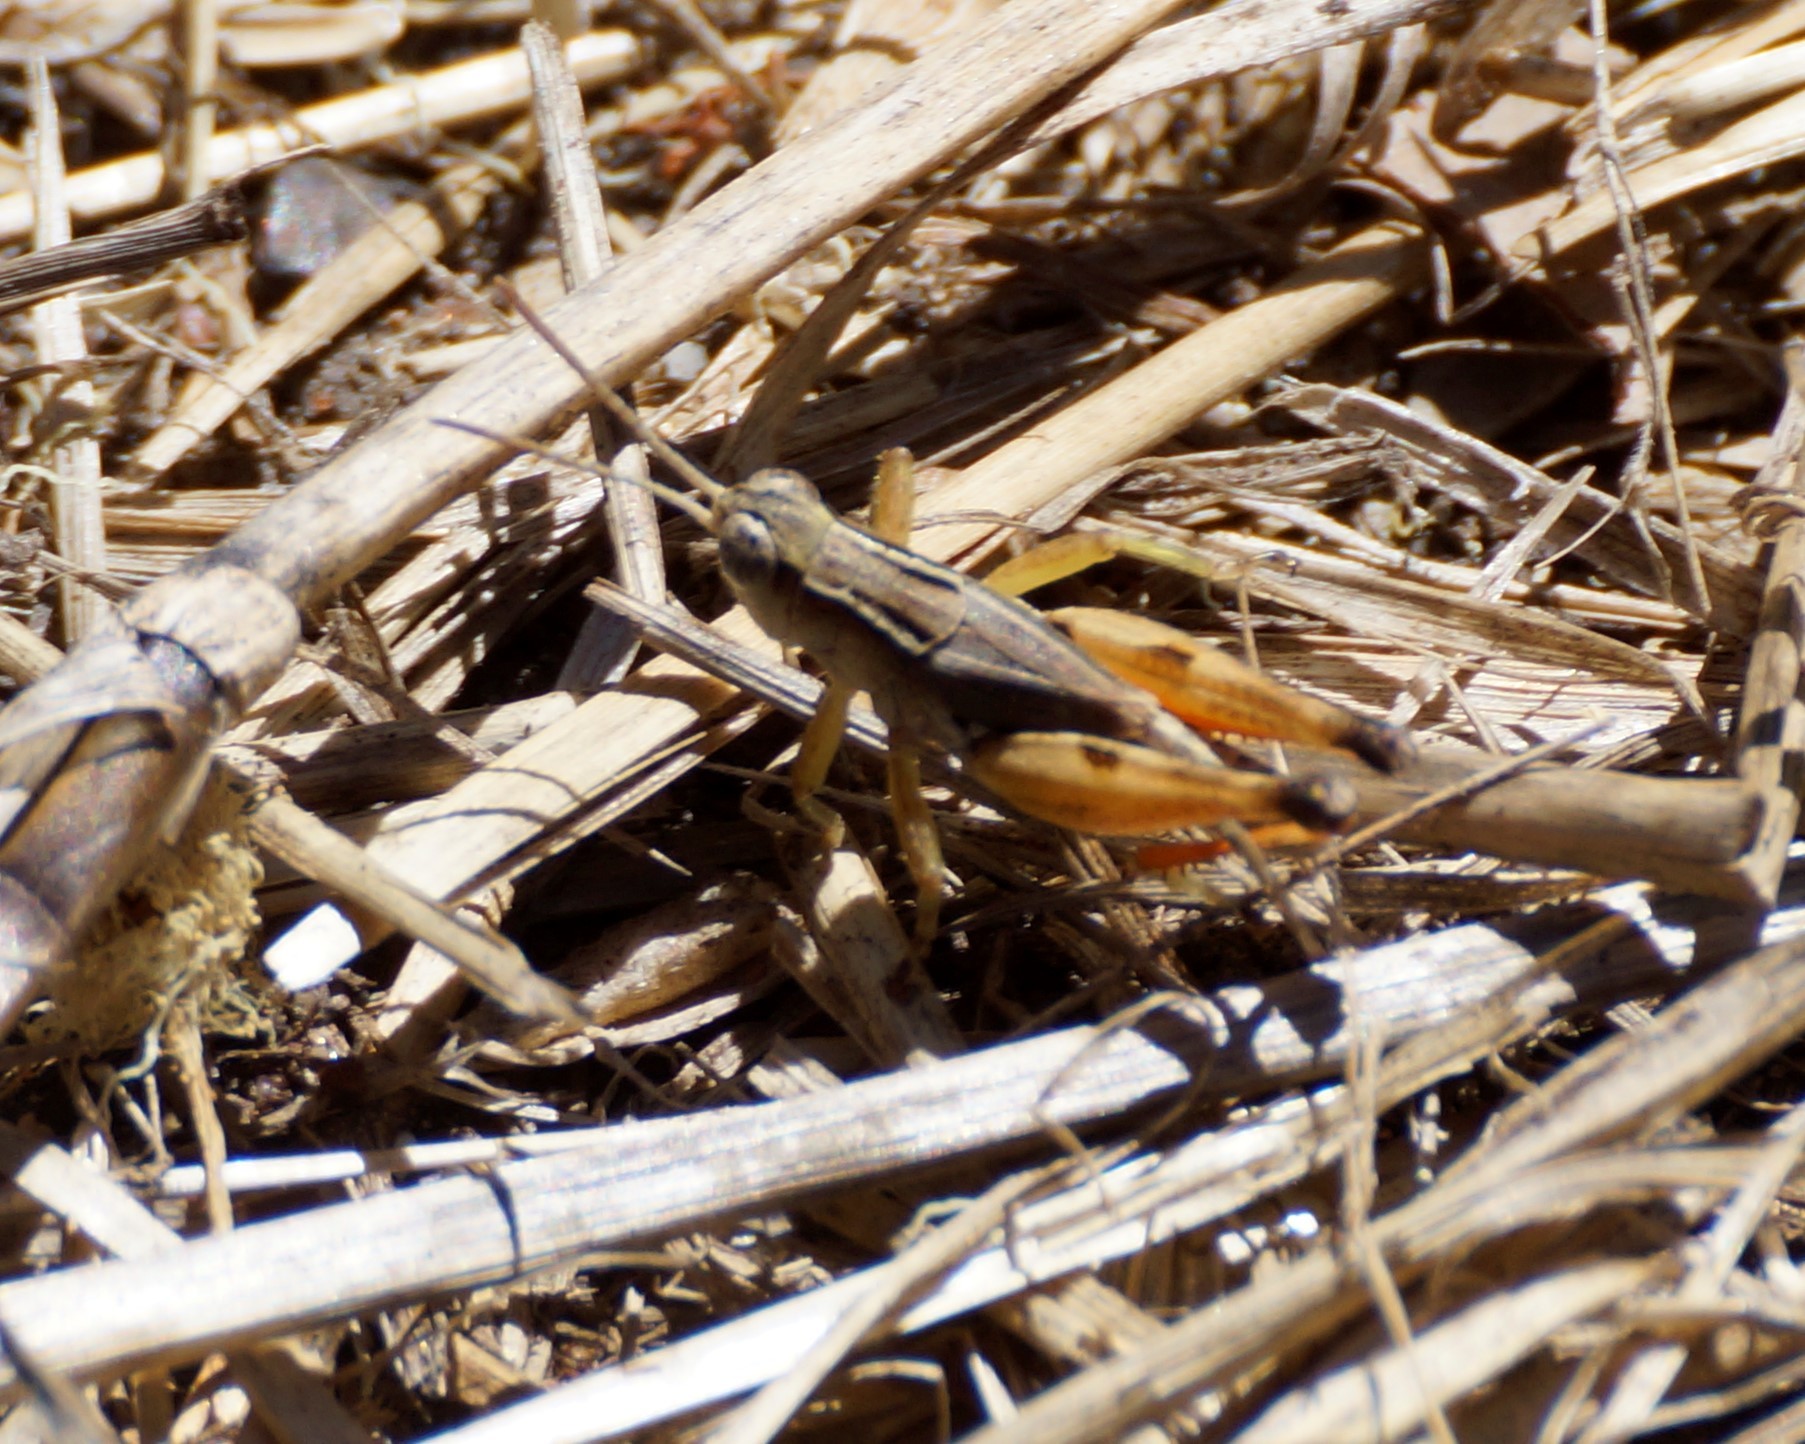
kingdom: Animalia
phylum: Arthropoda
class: Insecta
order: Orthoptera
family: Acrididae
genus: Phaulacridium
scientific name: Phaulacridium vittatum
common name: Wingless grasshopper
